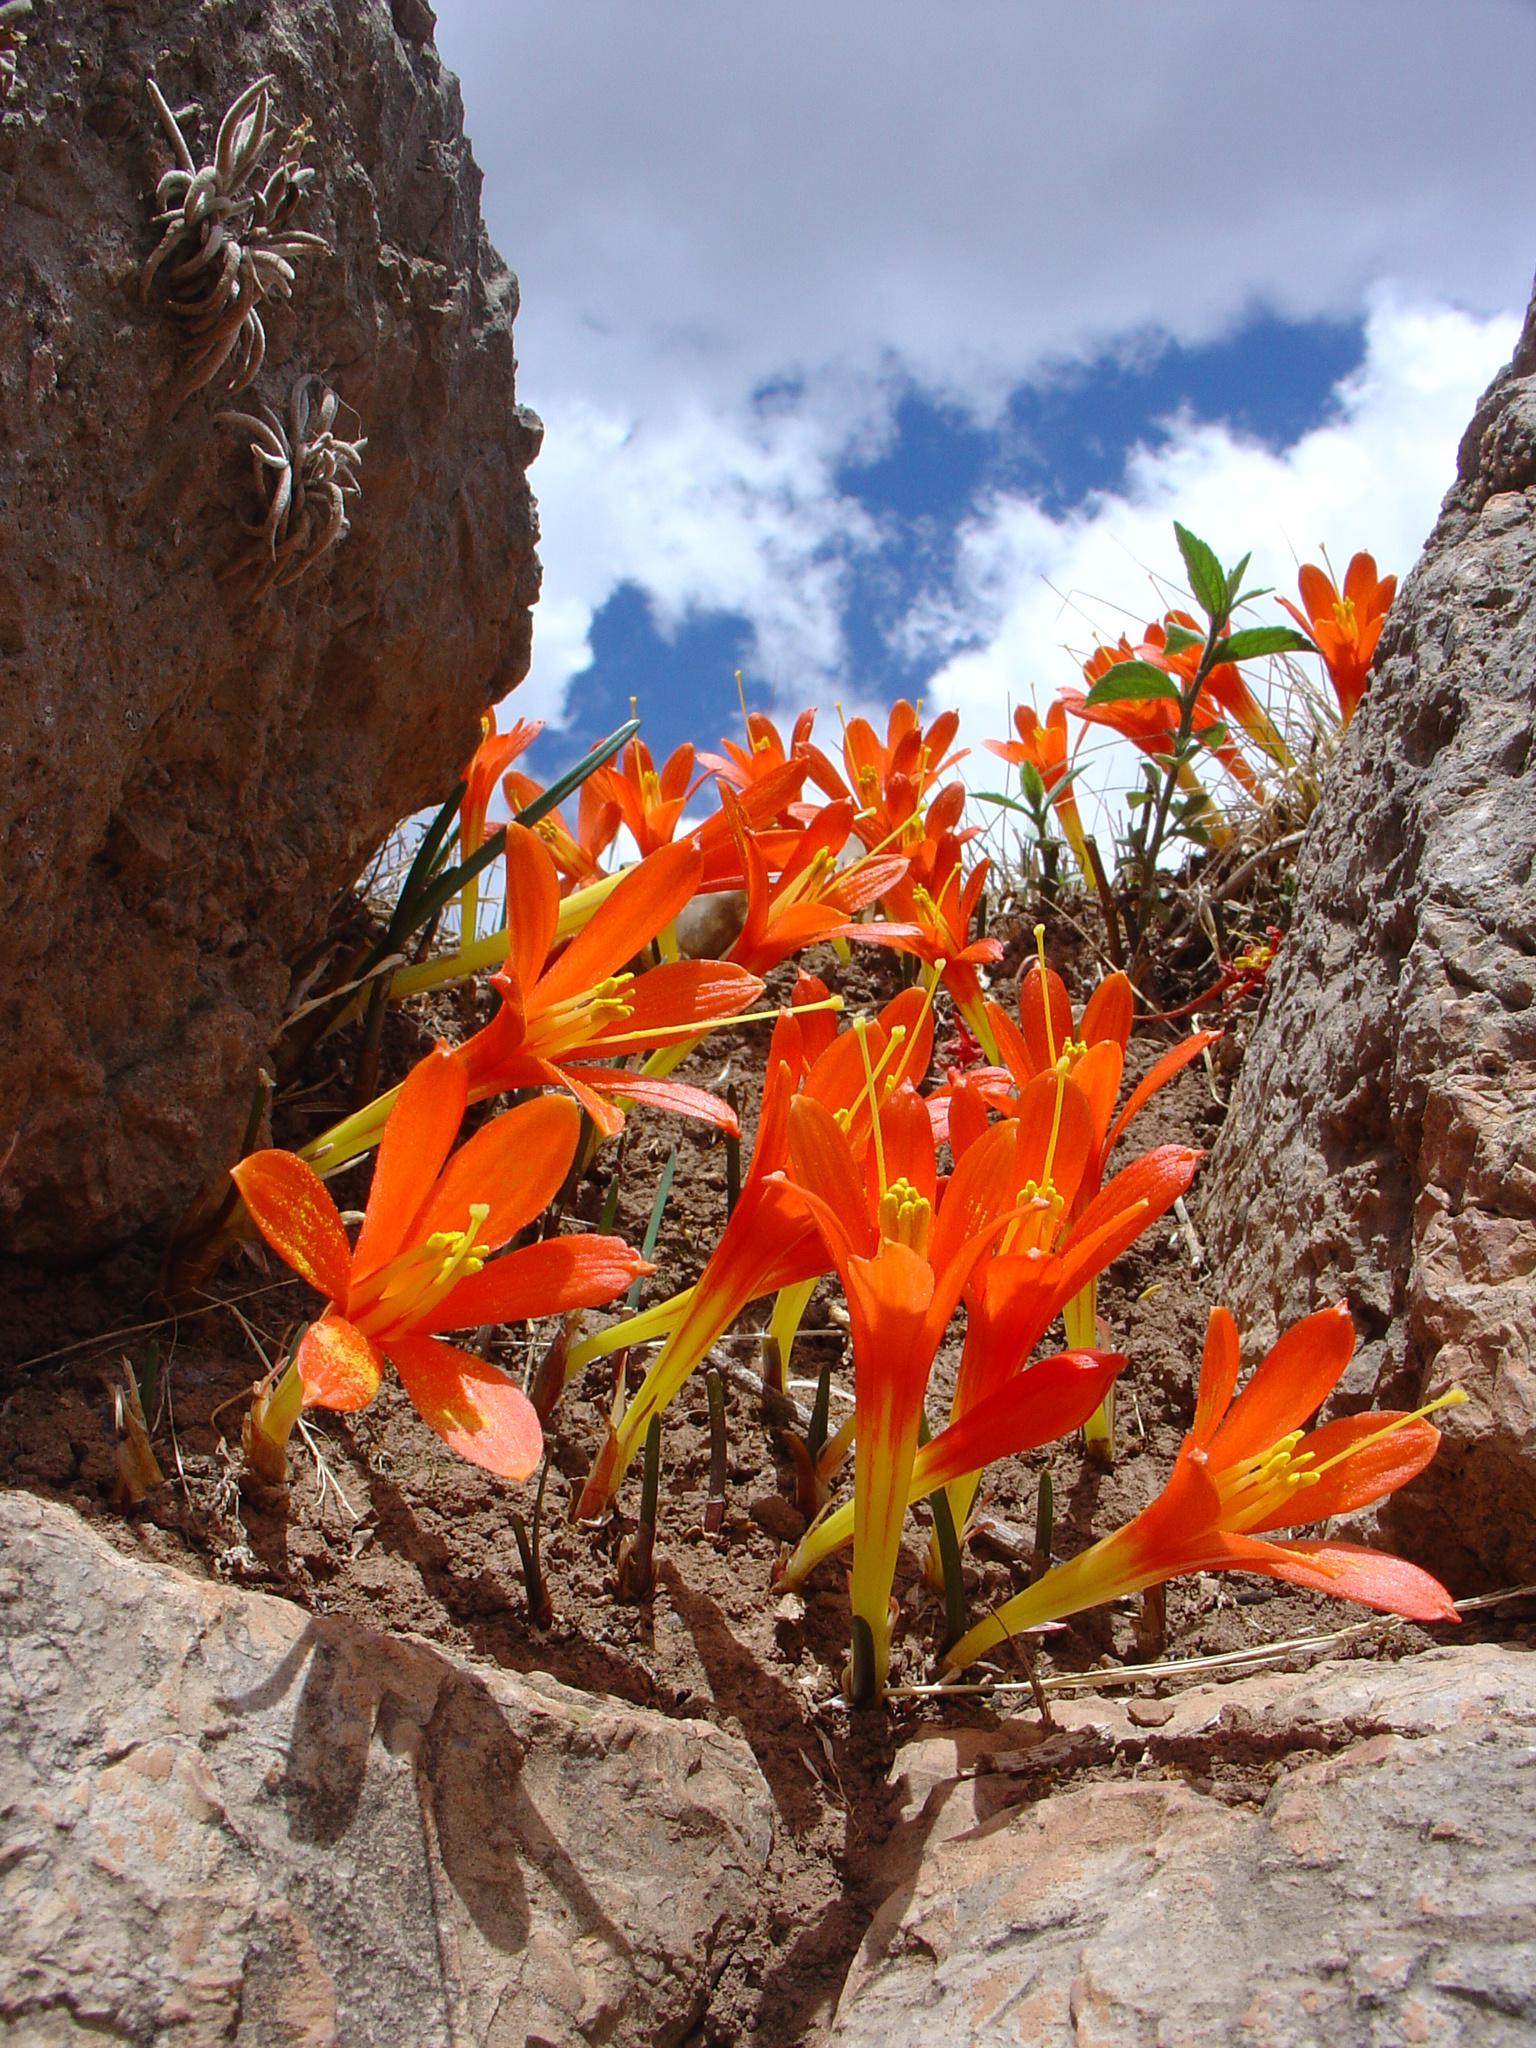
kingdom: Plantae
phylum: Tracheophyta
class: Liliopsida
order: Asparagales
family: Amaryllidaceae
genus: Clinanthus
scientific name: Clinanthus humilis
